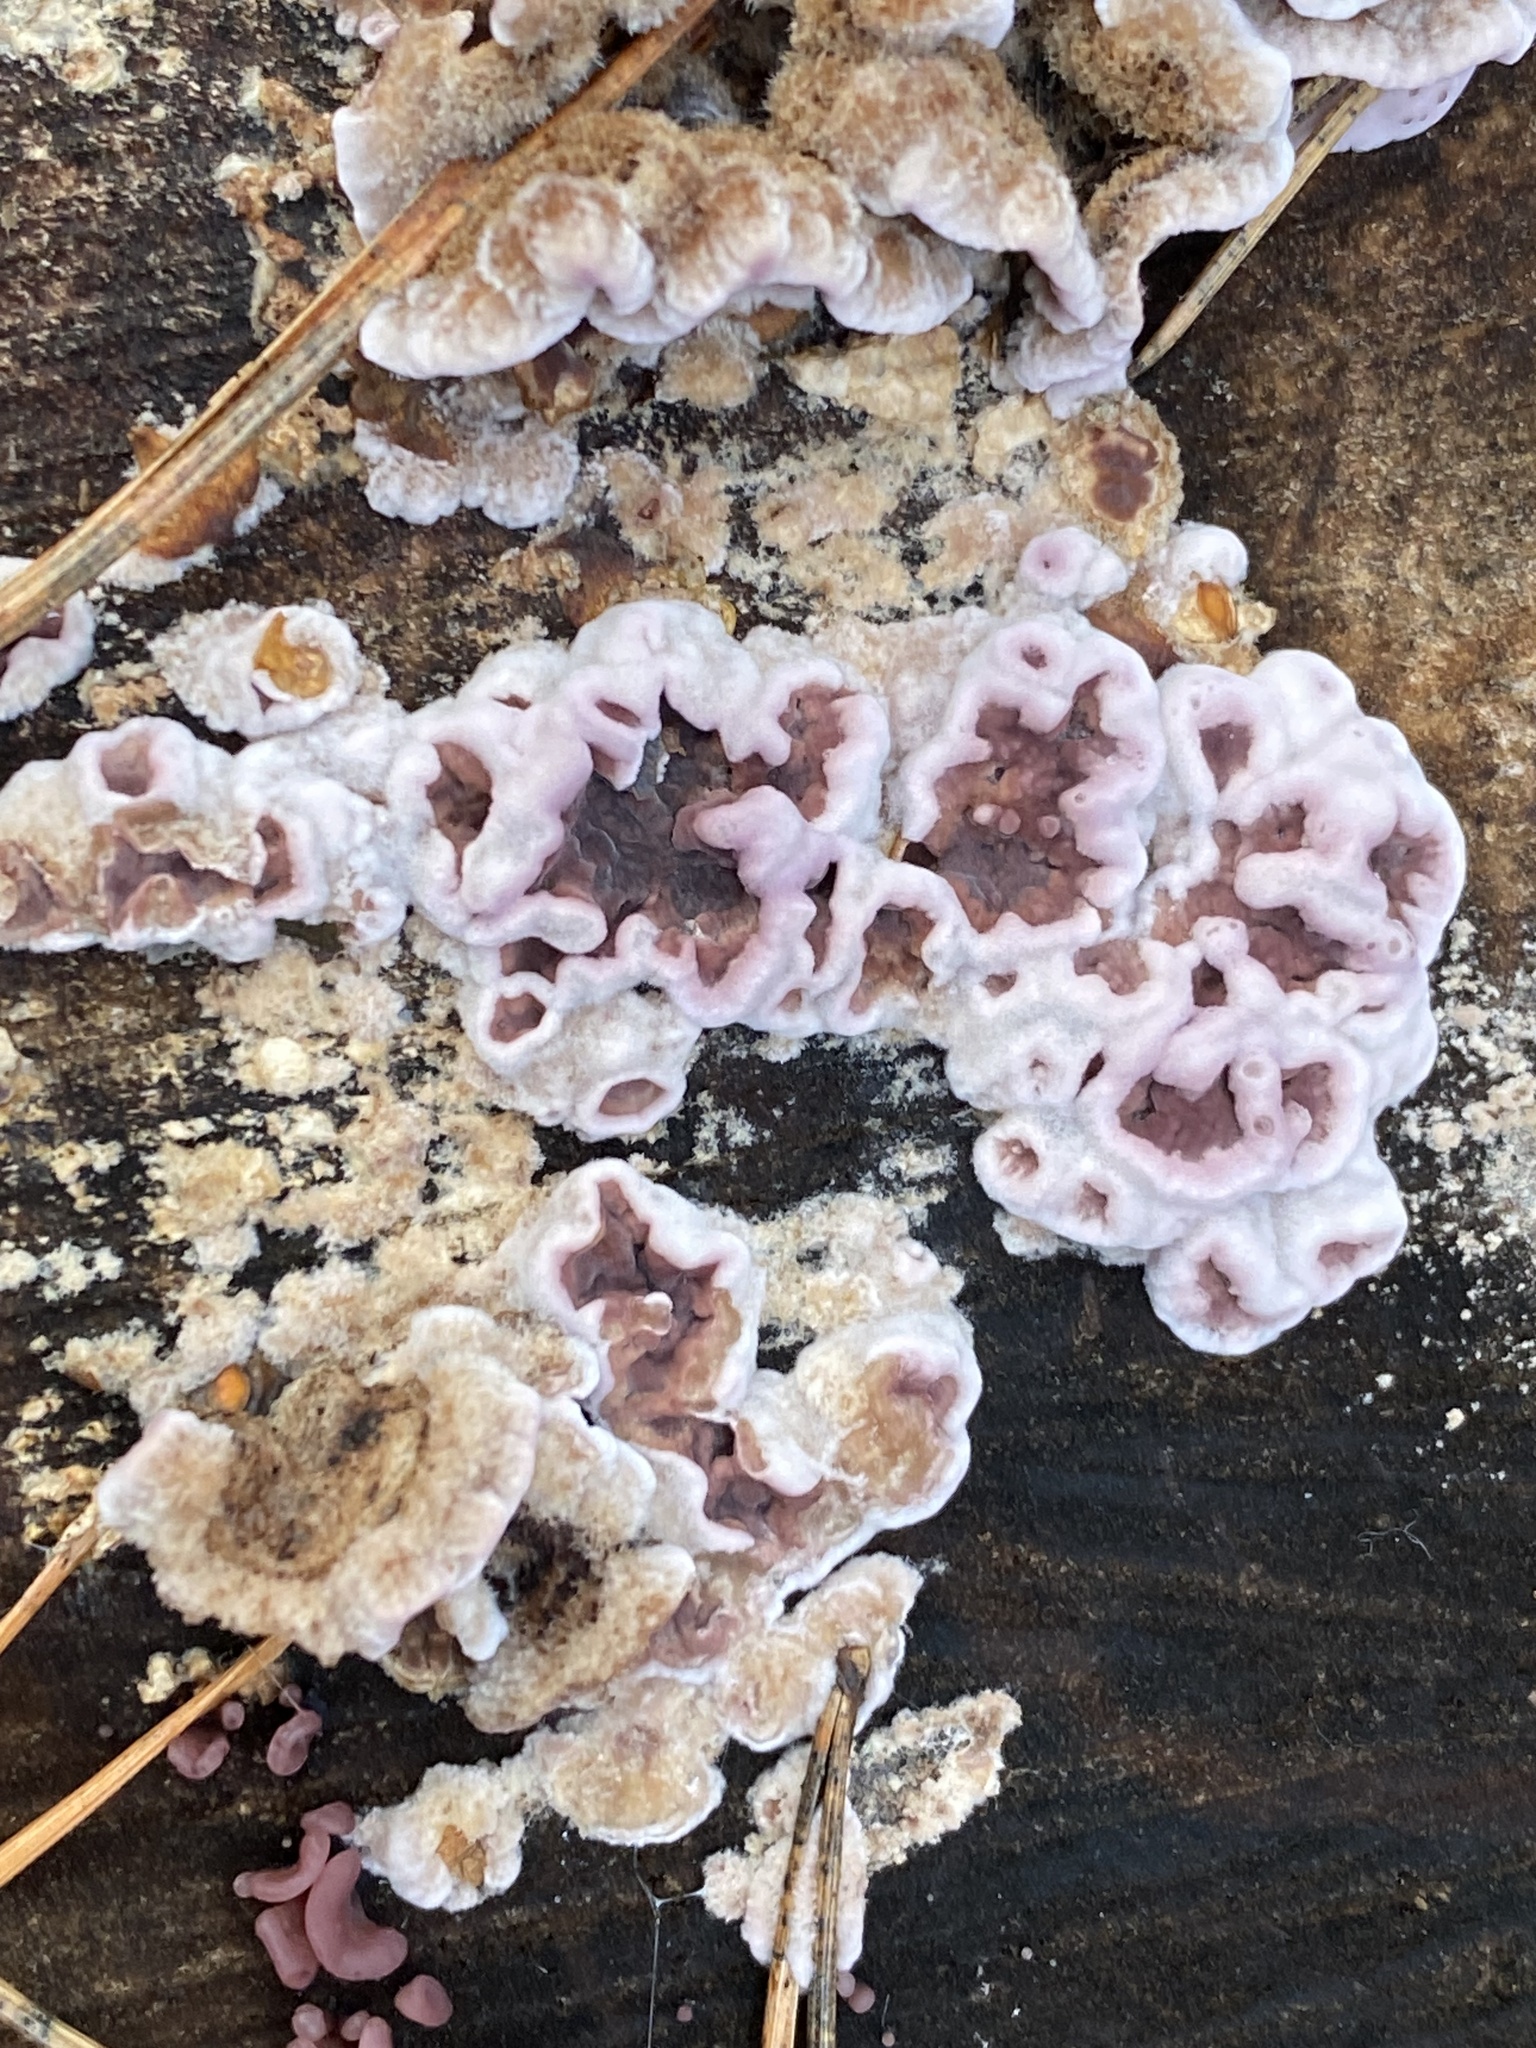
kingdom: Fungi
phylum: Basidiomycota
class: Agaricomycetes
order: Agaricales
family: Cyphellaceae
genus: Chondrostereum
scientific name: Chondrostereum purpureum
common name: Silver leaf disease
